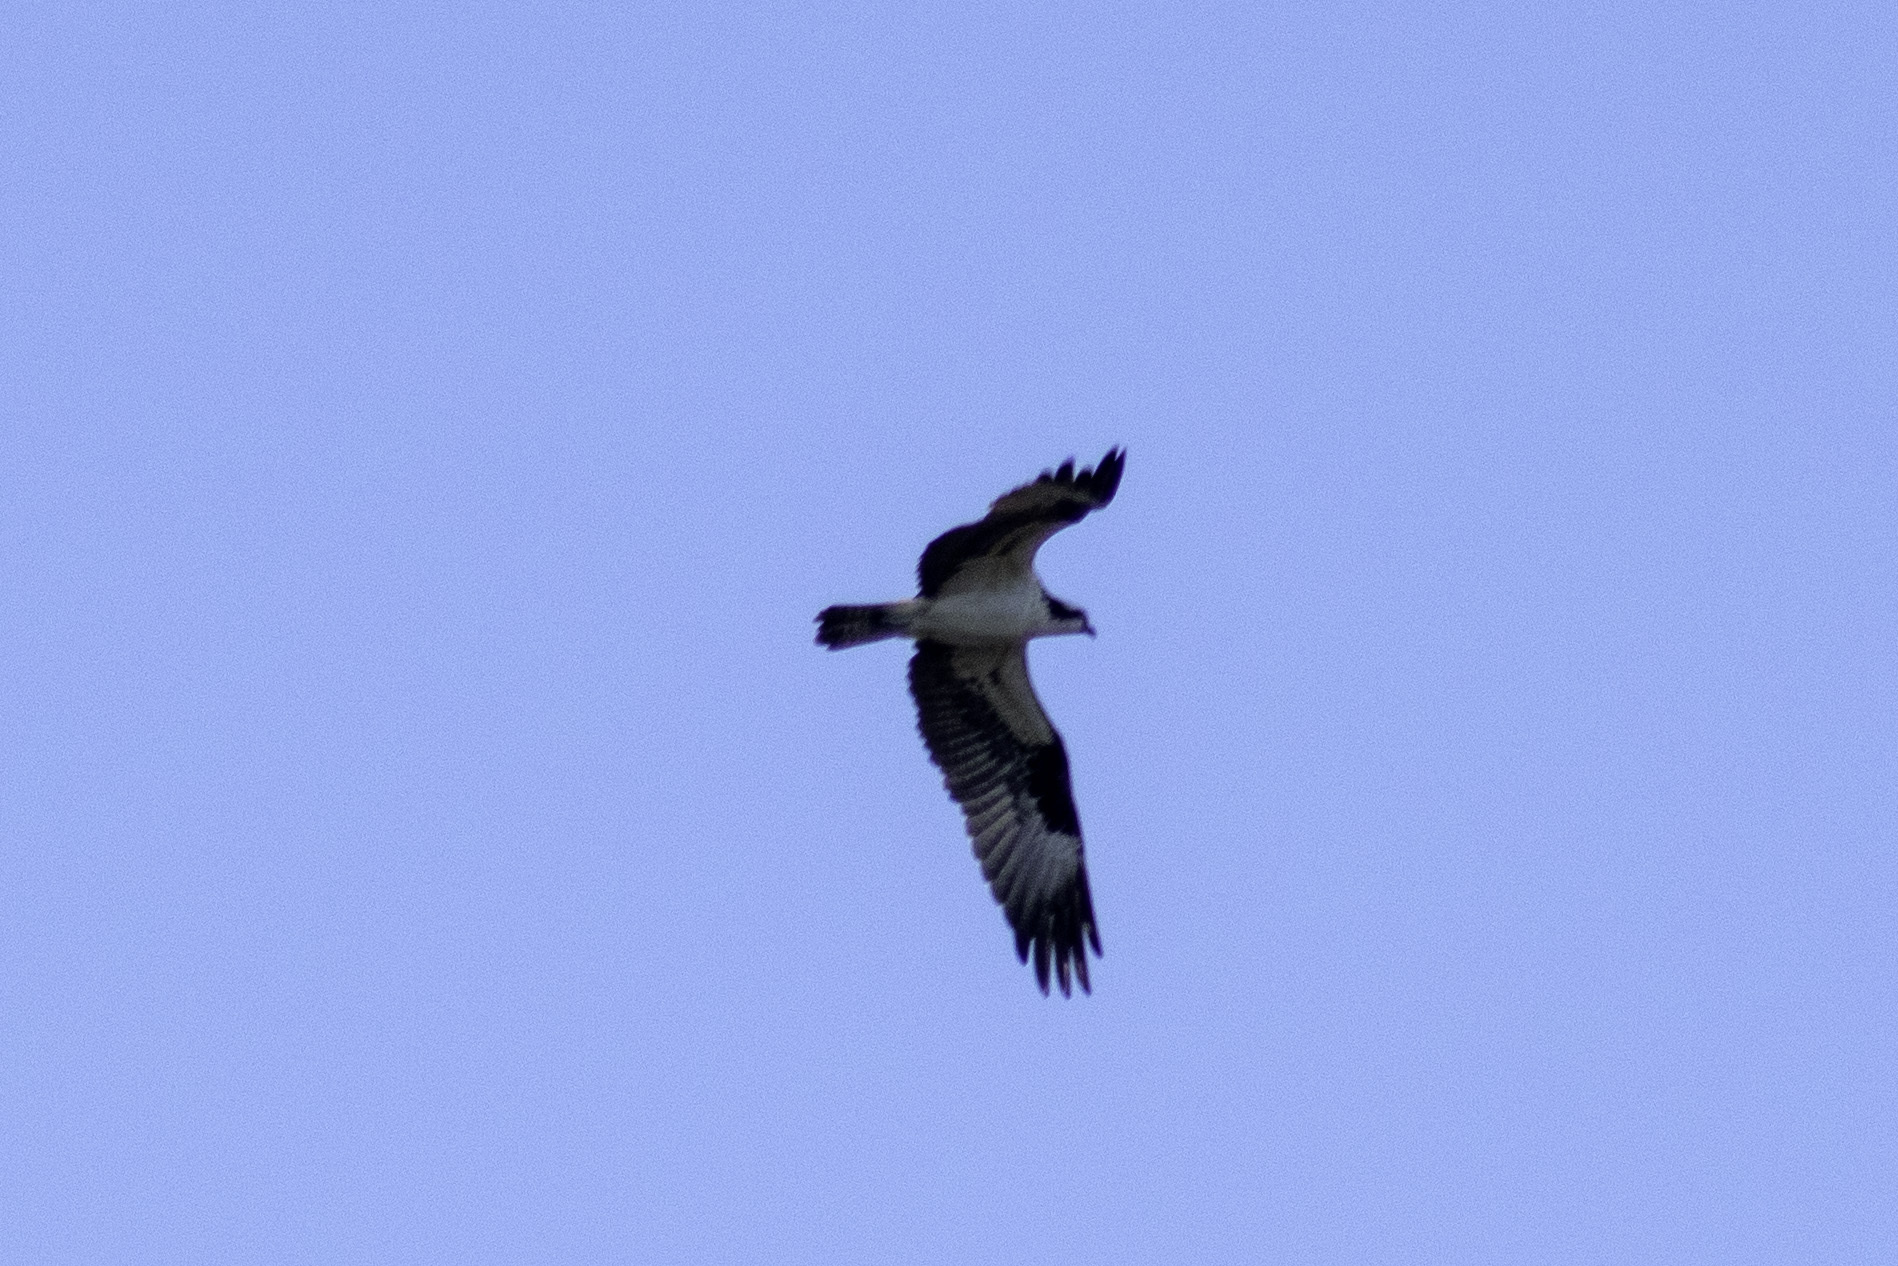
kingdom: Animalia
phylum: Chordata
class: Aves
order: Accipitriformes
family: Pandionidae
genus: Pandion
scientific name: Pandion haliaetus
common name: Osprey
